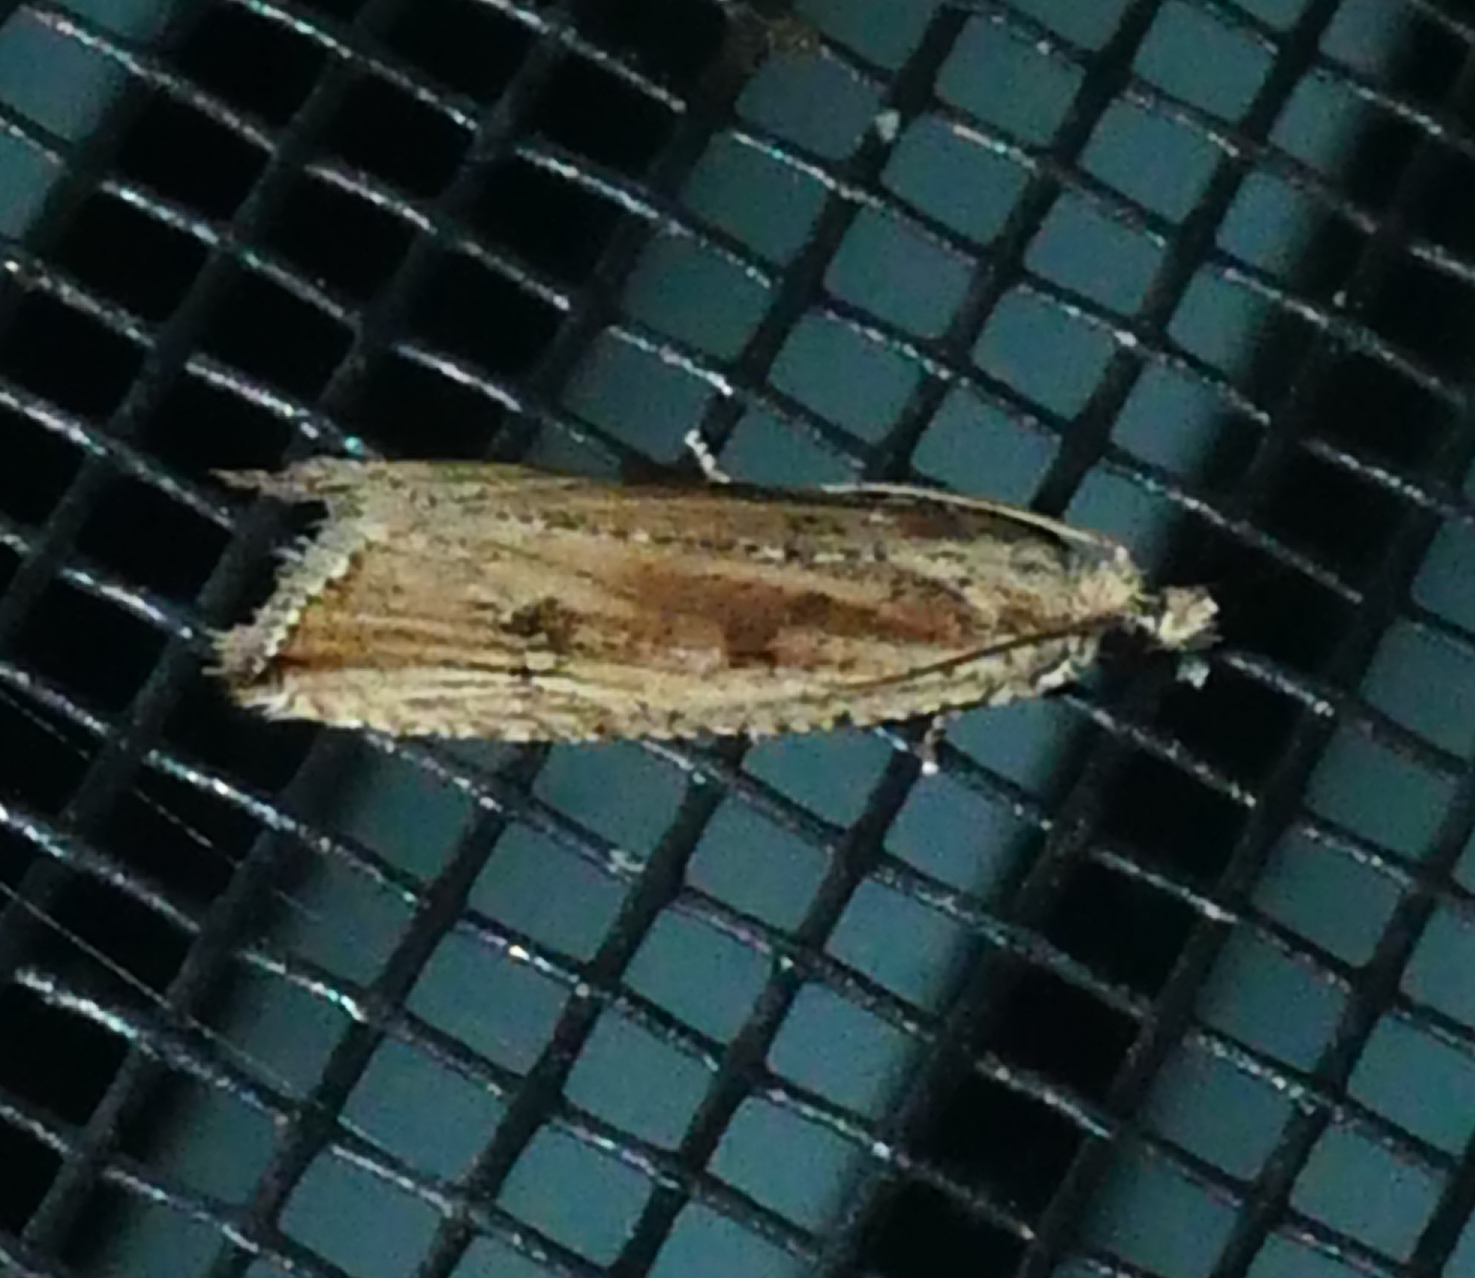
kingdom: Animalia
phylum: Arthropoda
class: Insecta
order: Lepidoptera
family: Tortricidae
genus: Bactra
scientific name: Bactra verutana
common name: Javelin moth
